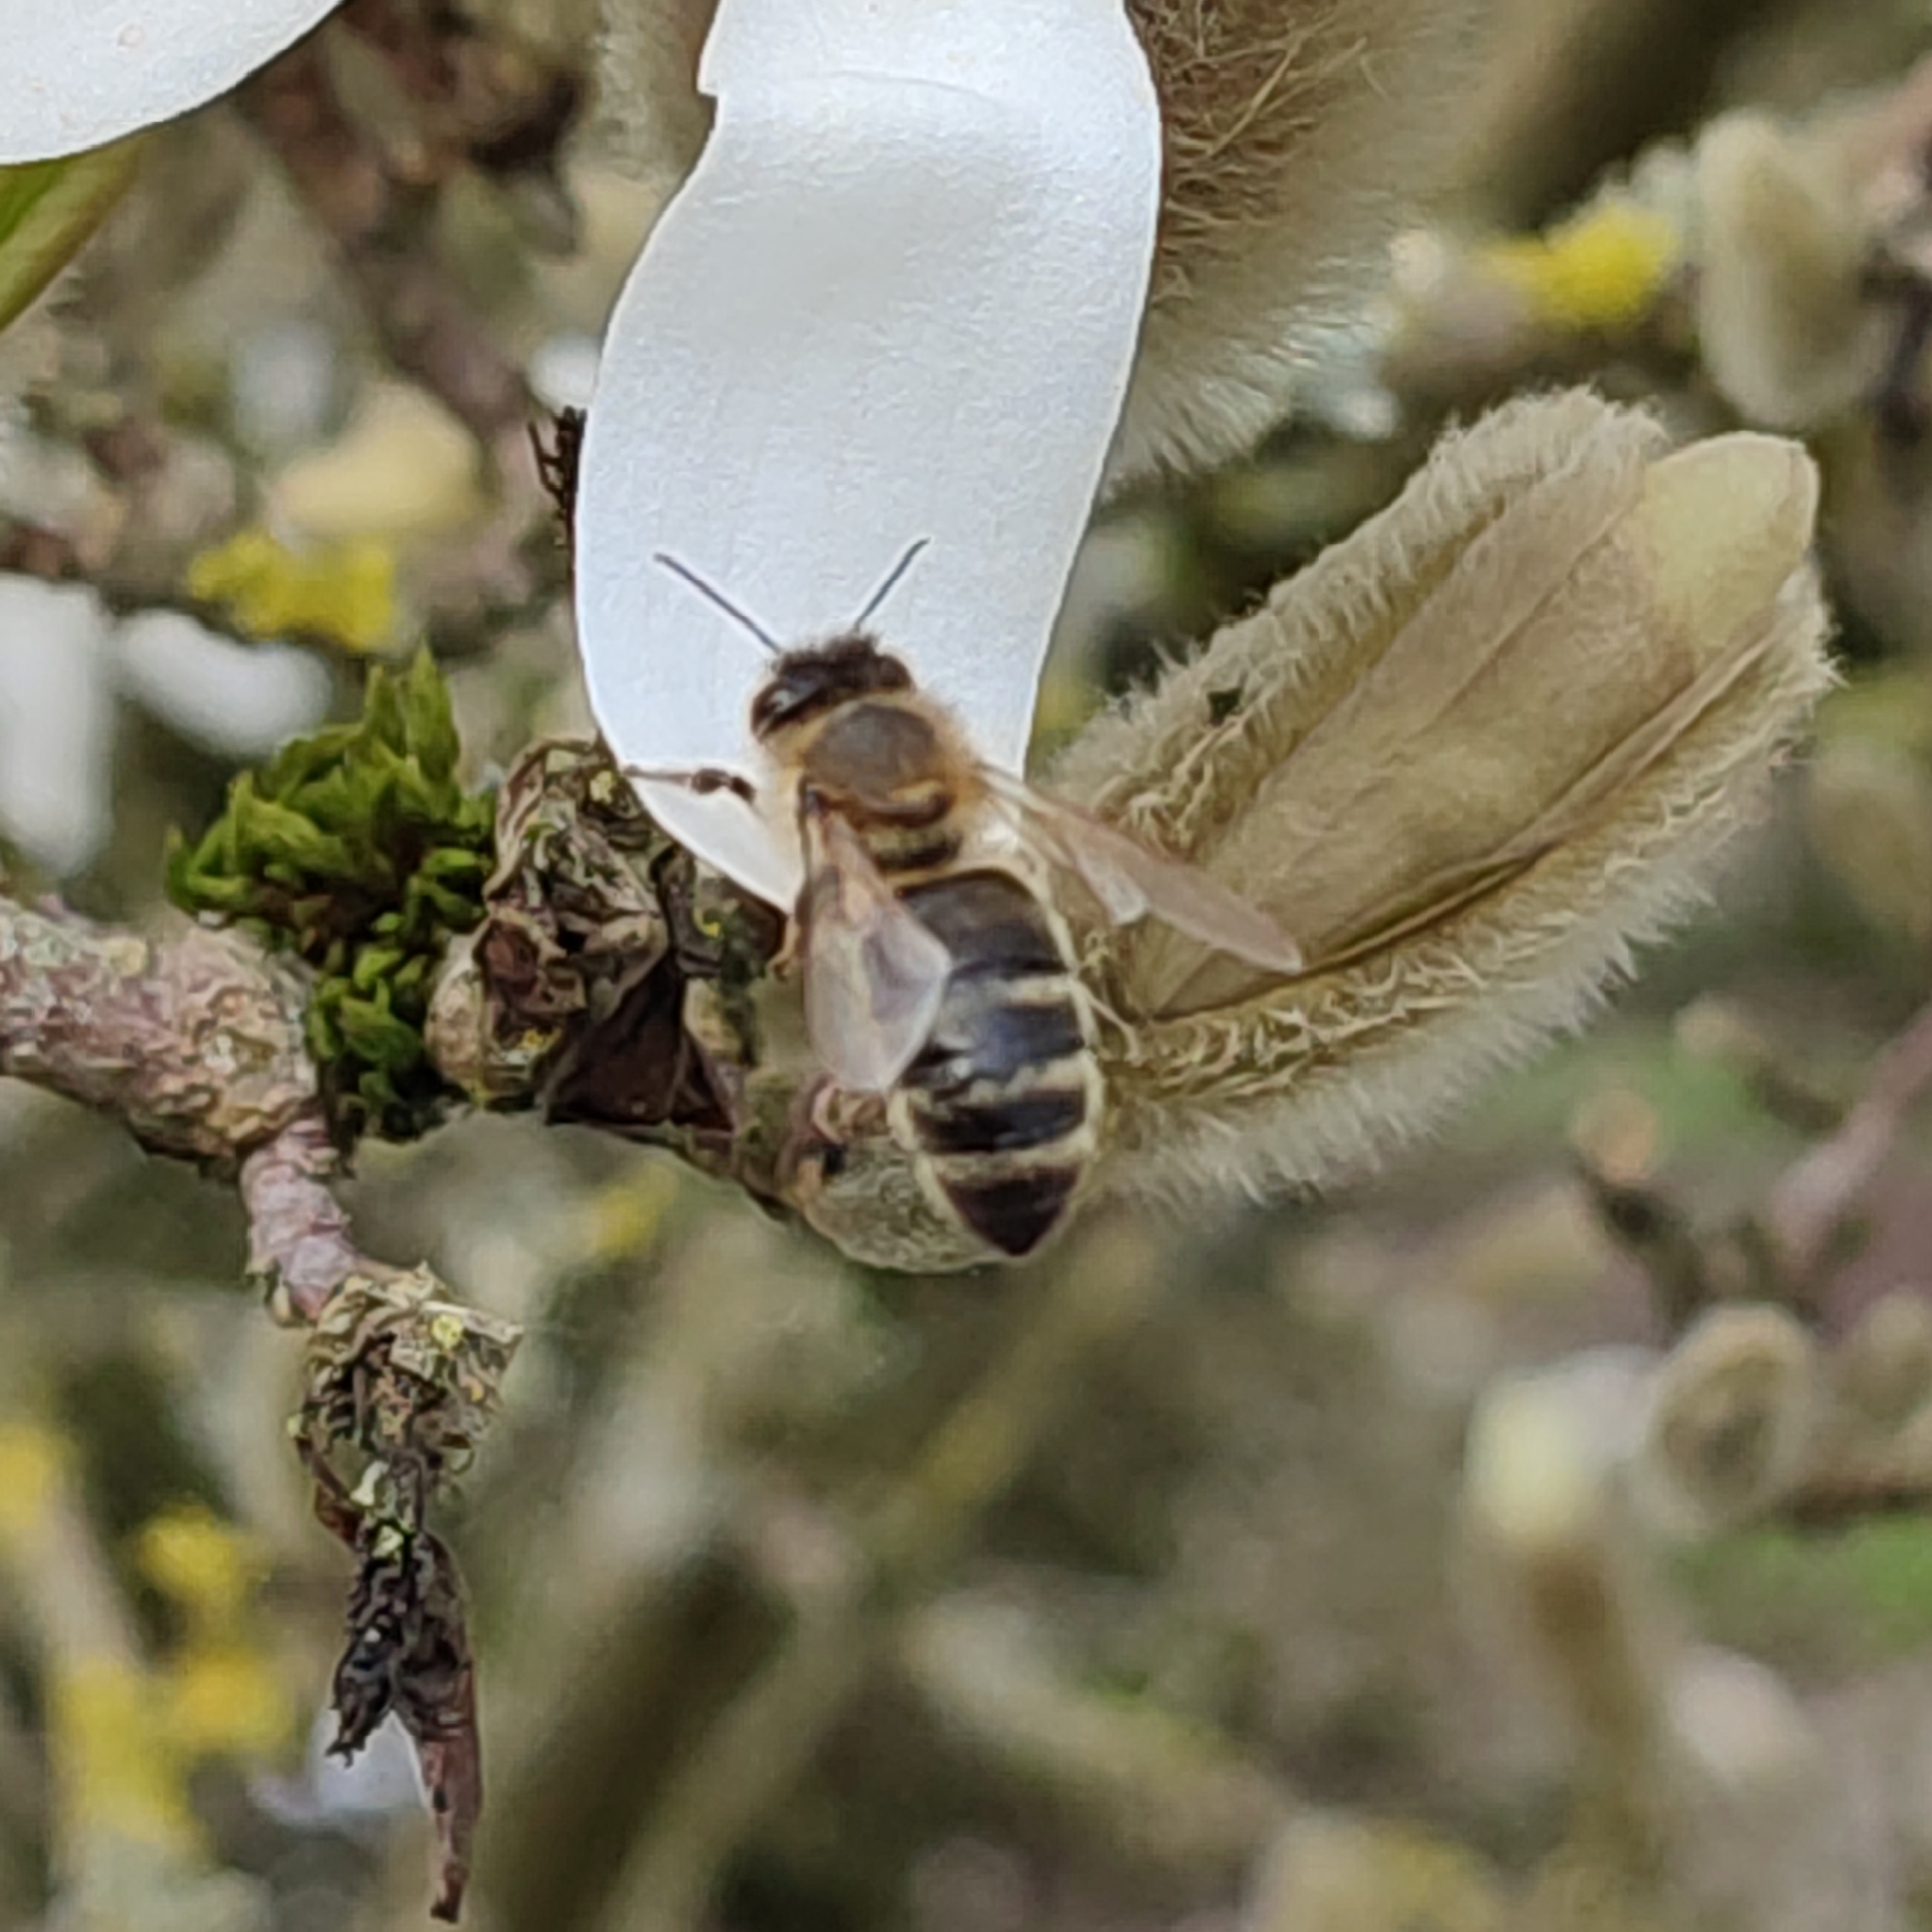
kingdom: Animalia
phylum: Arthropoda
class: Insecta
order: Hymenoptera
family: Apidae
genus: Apis
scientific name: Apis mellifera
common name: Honey bee
